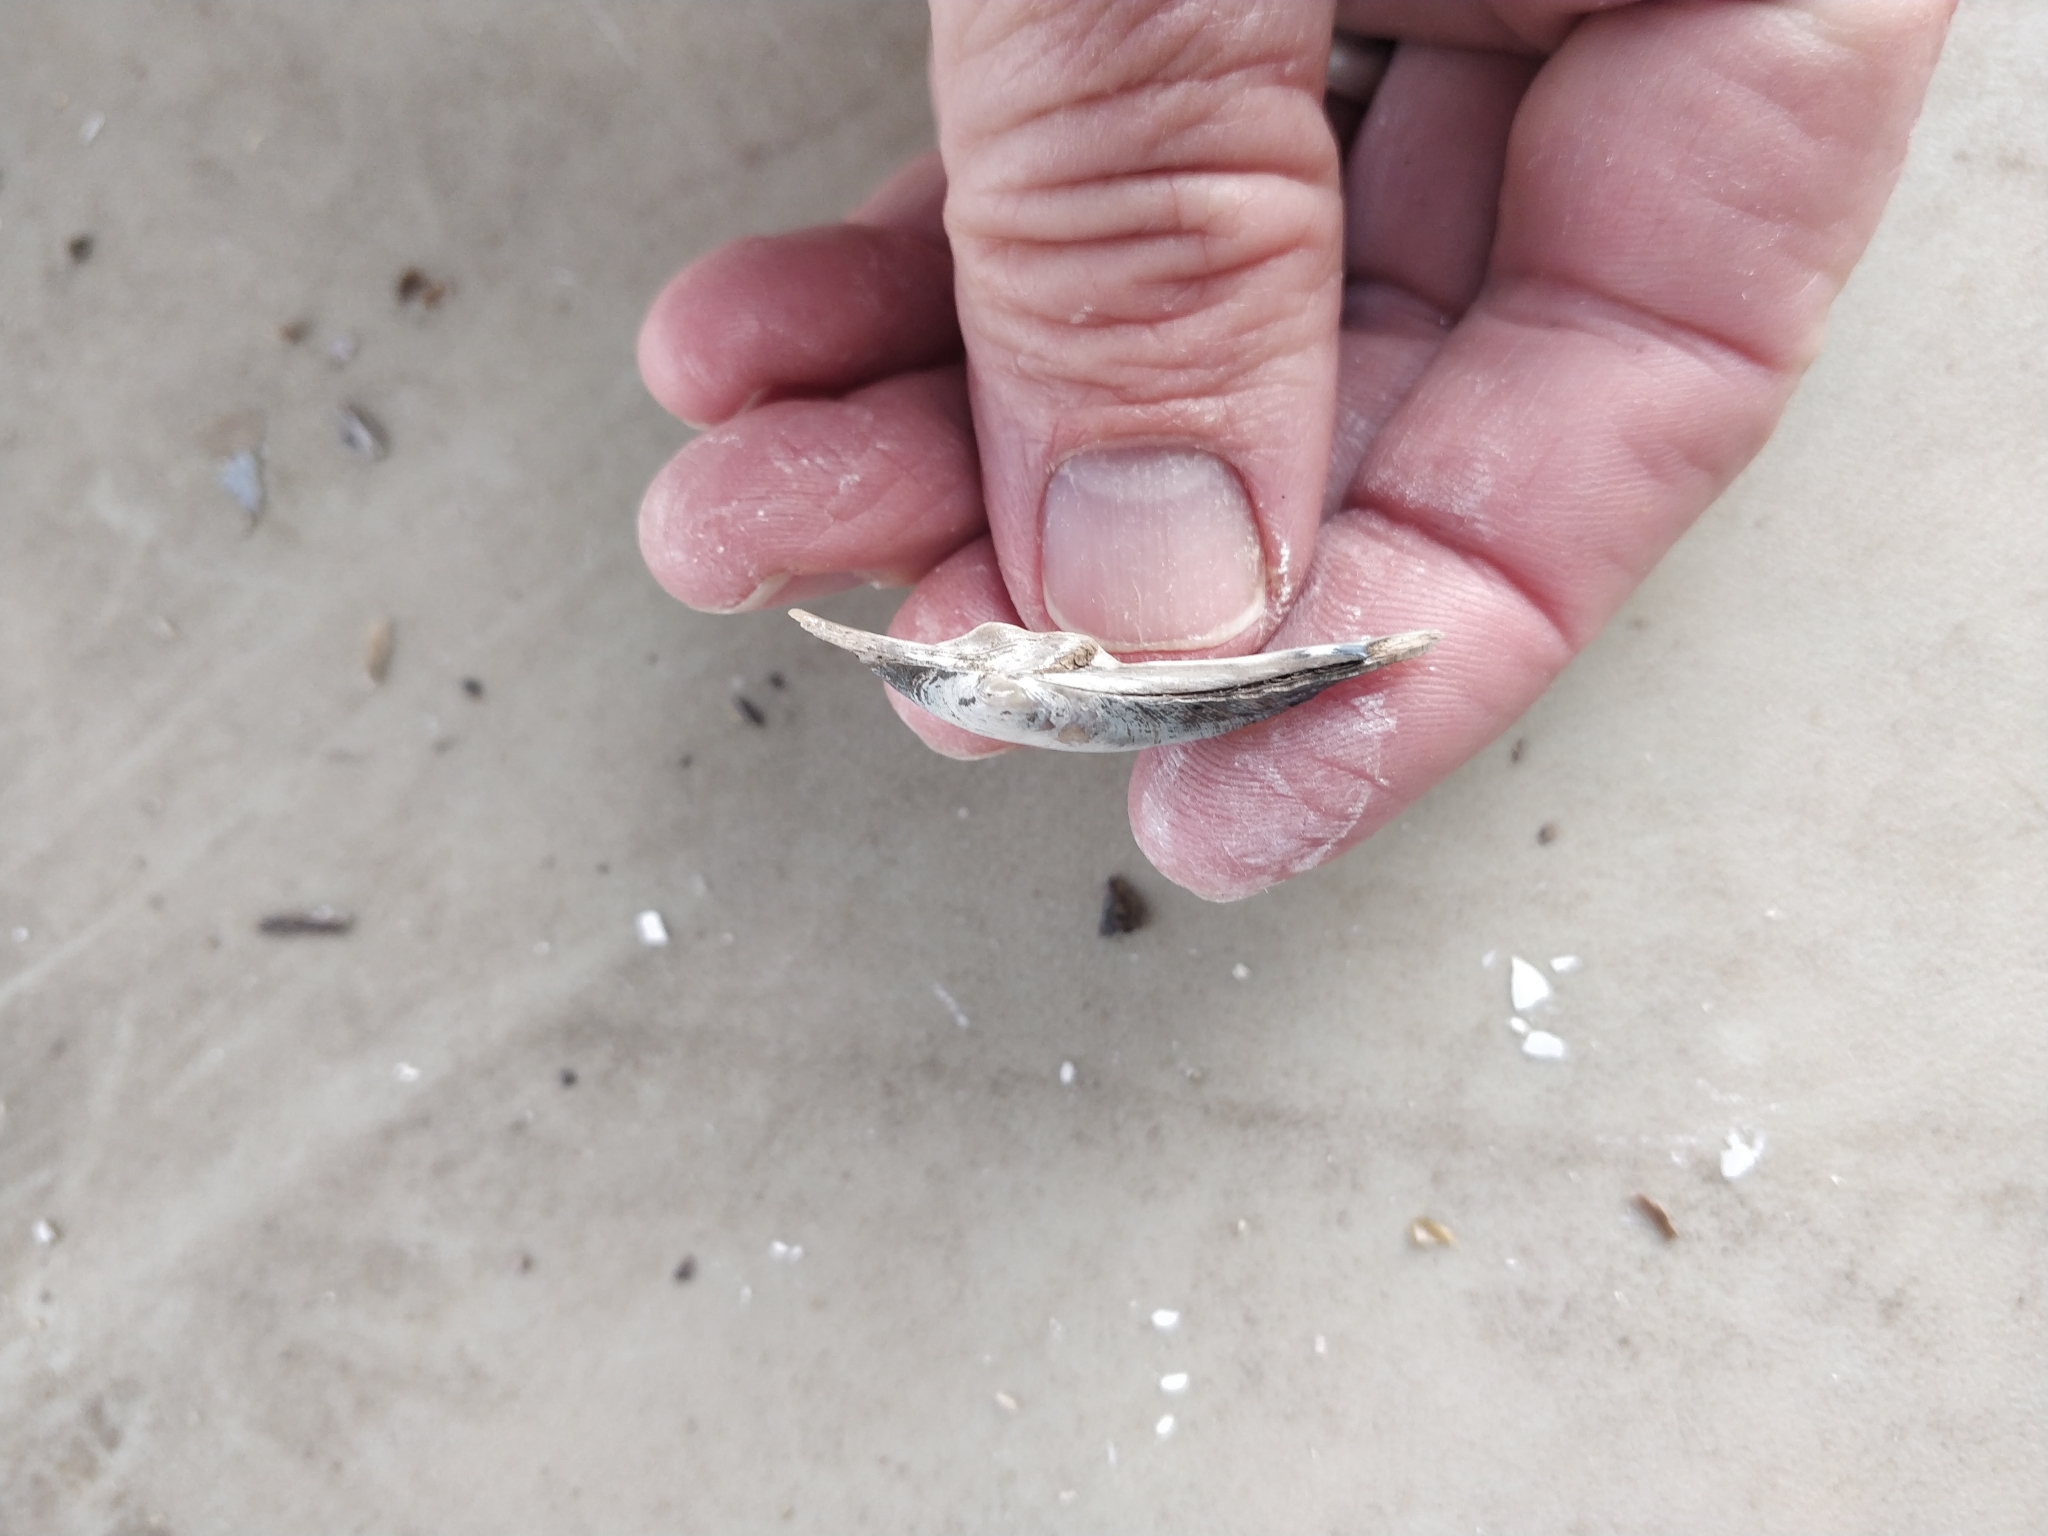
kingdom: Animalia
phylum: Mollusca
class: Bivalvia
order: Unionida
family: Unionidae
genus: Lasmigona
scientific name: Lasmigona compressa
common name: Creek heelsplitter
